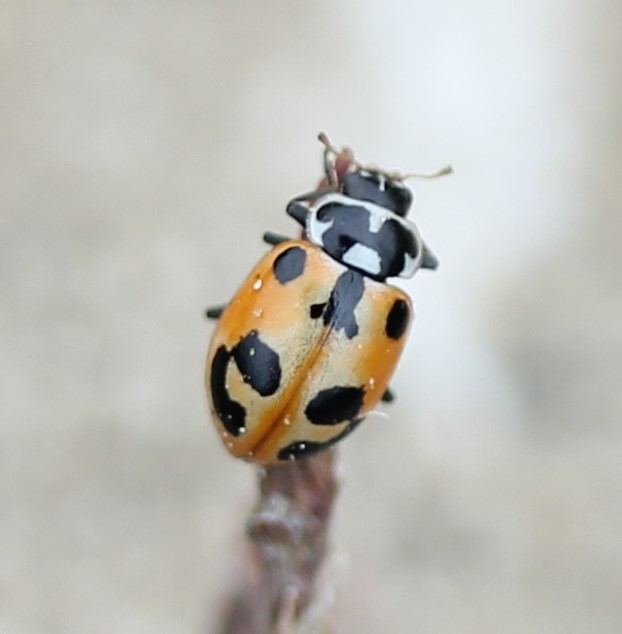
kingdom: Animalia
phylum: Arthropoda
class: Insecta
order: Coleoptera
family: Coccinellidae
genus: Hippodamia
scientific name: Hippodamia parenthesis
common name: Parenthesis lady beetle
